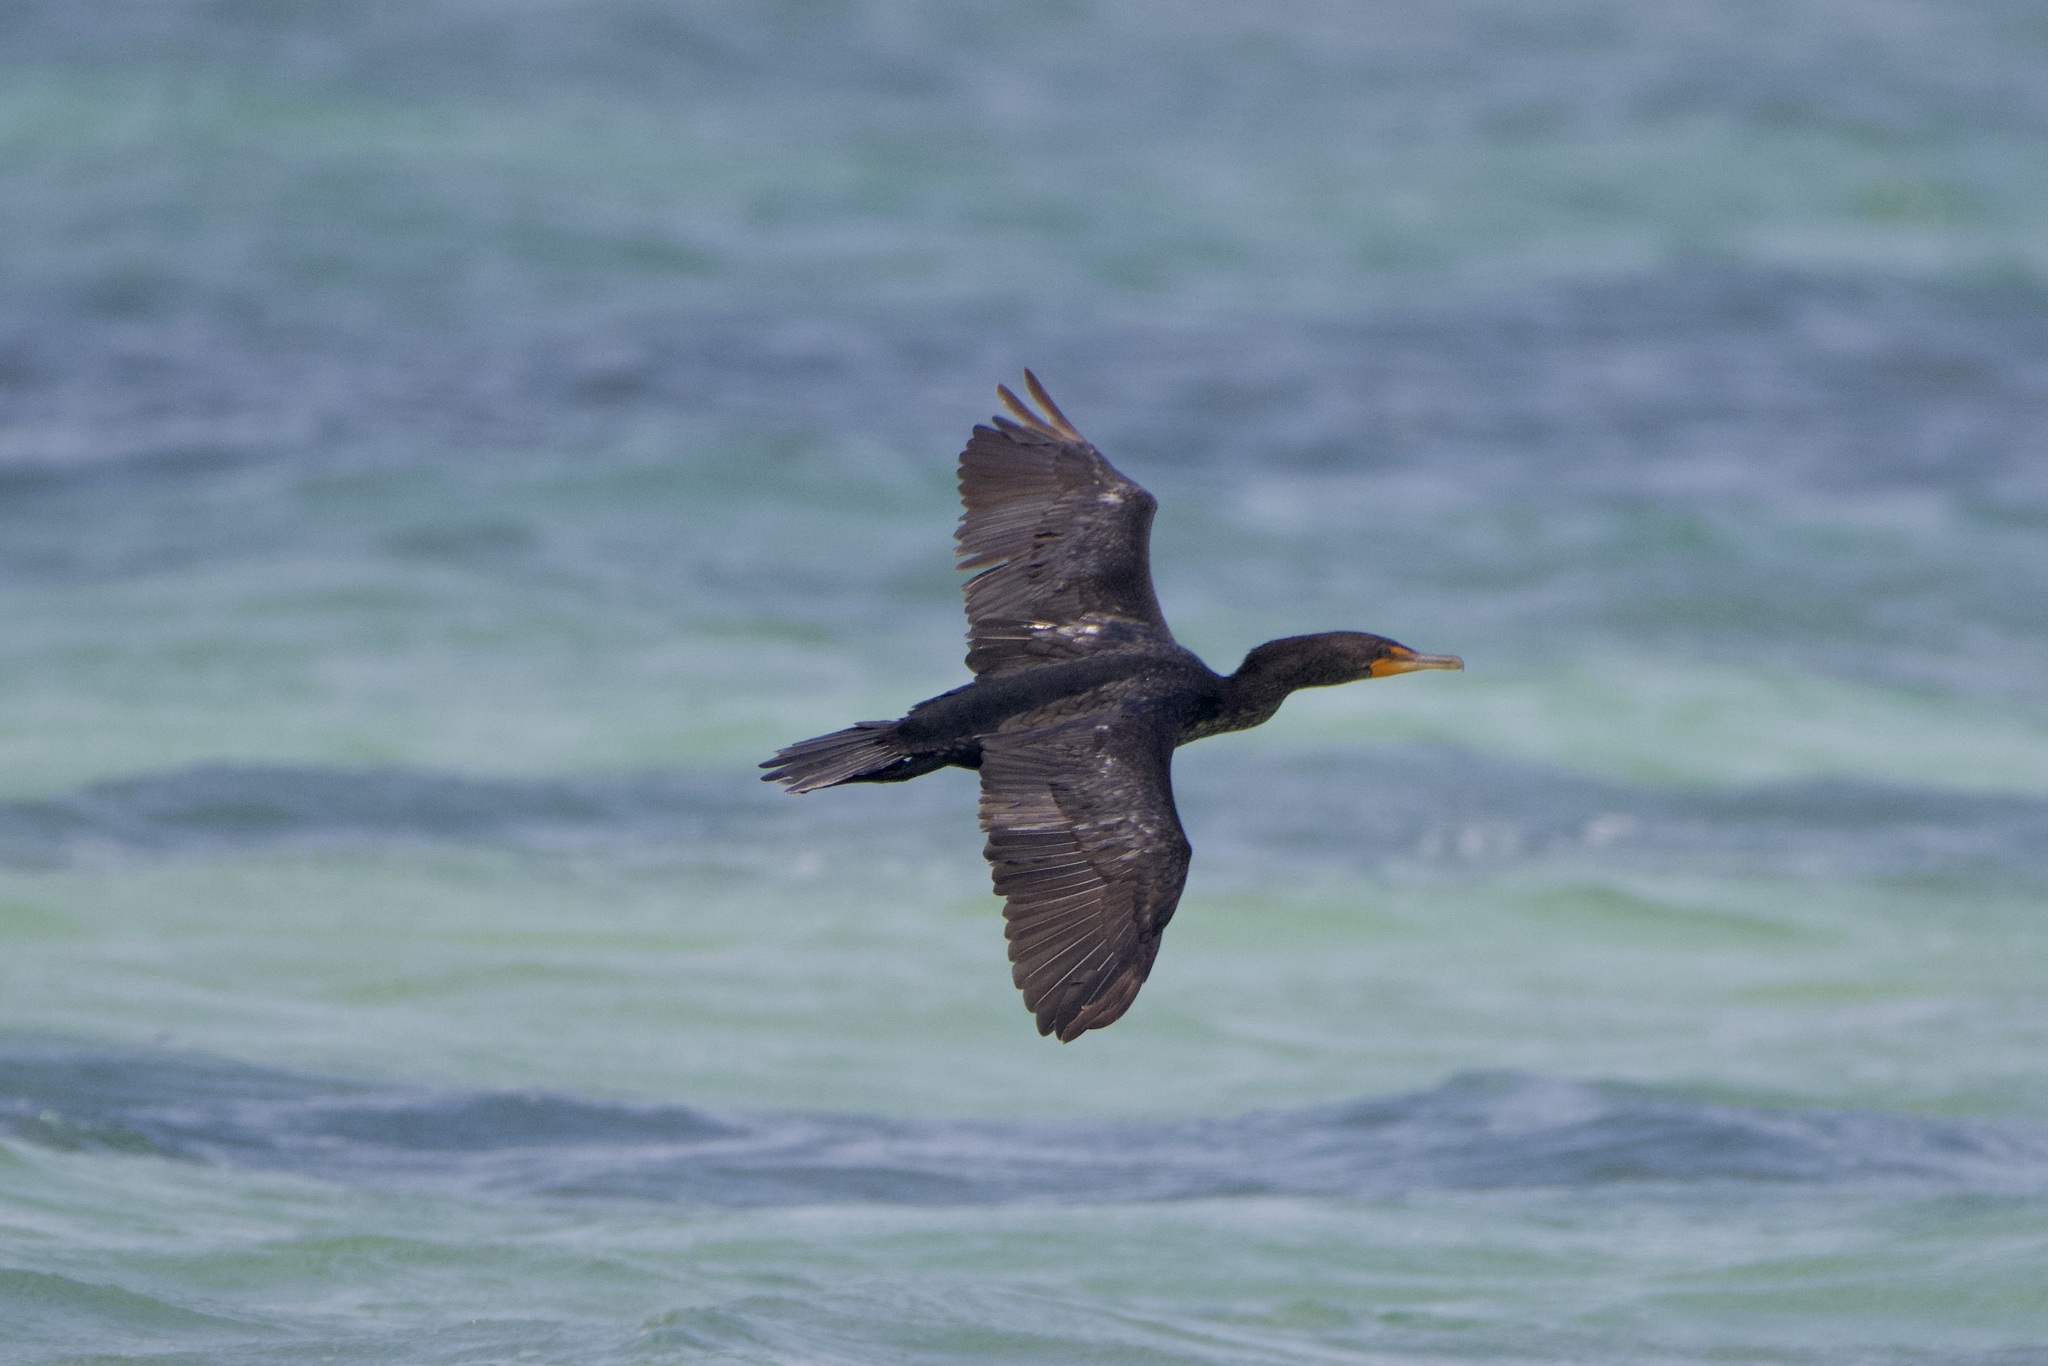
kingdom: Animalia
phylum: Chordata
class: Aves
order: Suliformes
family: Phalacrocoracidae
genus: Phalacrocorax
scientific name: Phalacrocorax auritus
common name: Double-crested cormorant
